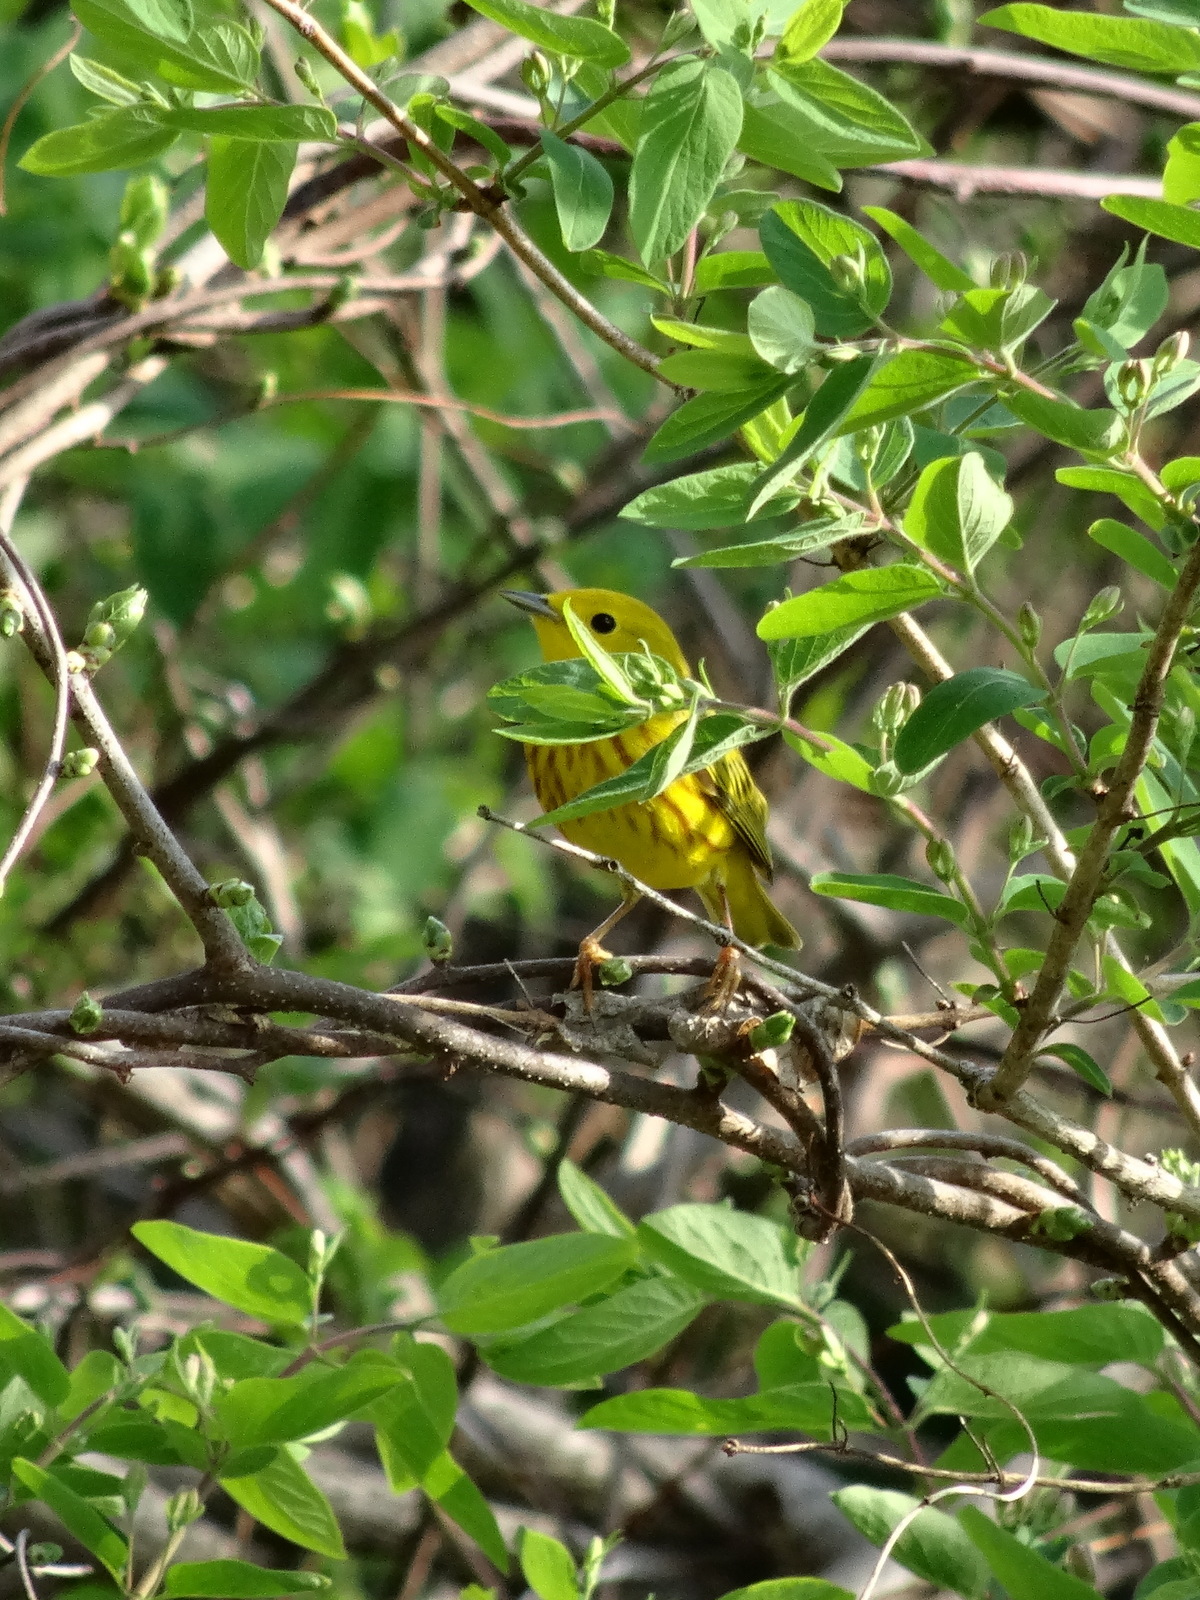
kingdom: Animalia
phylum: Chordata
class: Aves
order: Passeriformes
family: Parulidae
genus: Setophaga
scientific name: Setophaga petechia
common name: Yellow warbler
